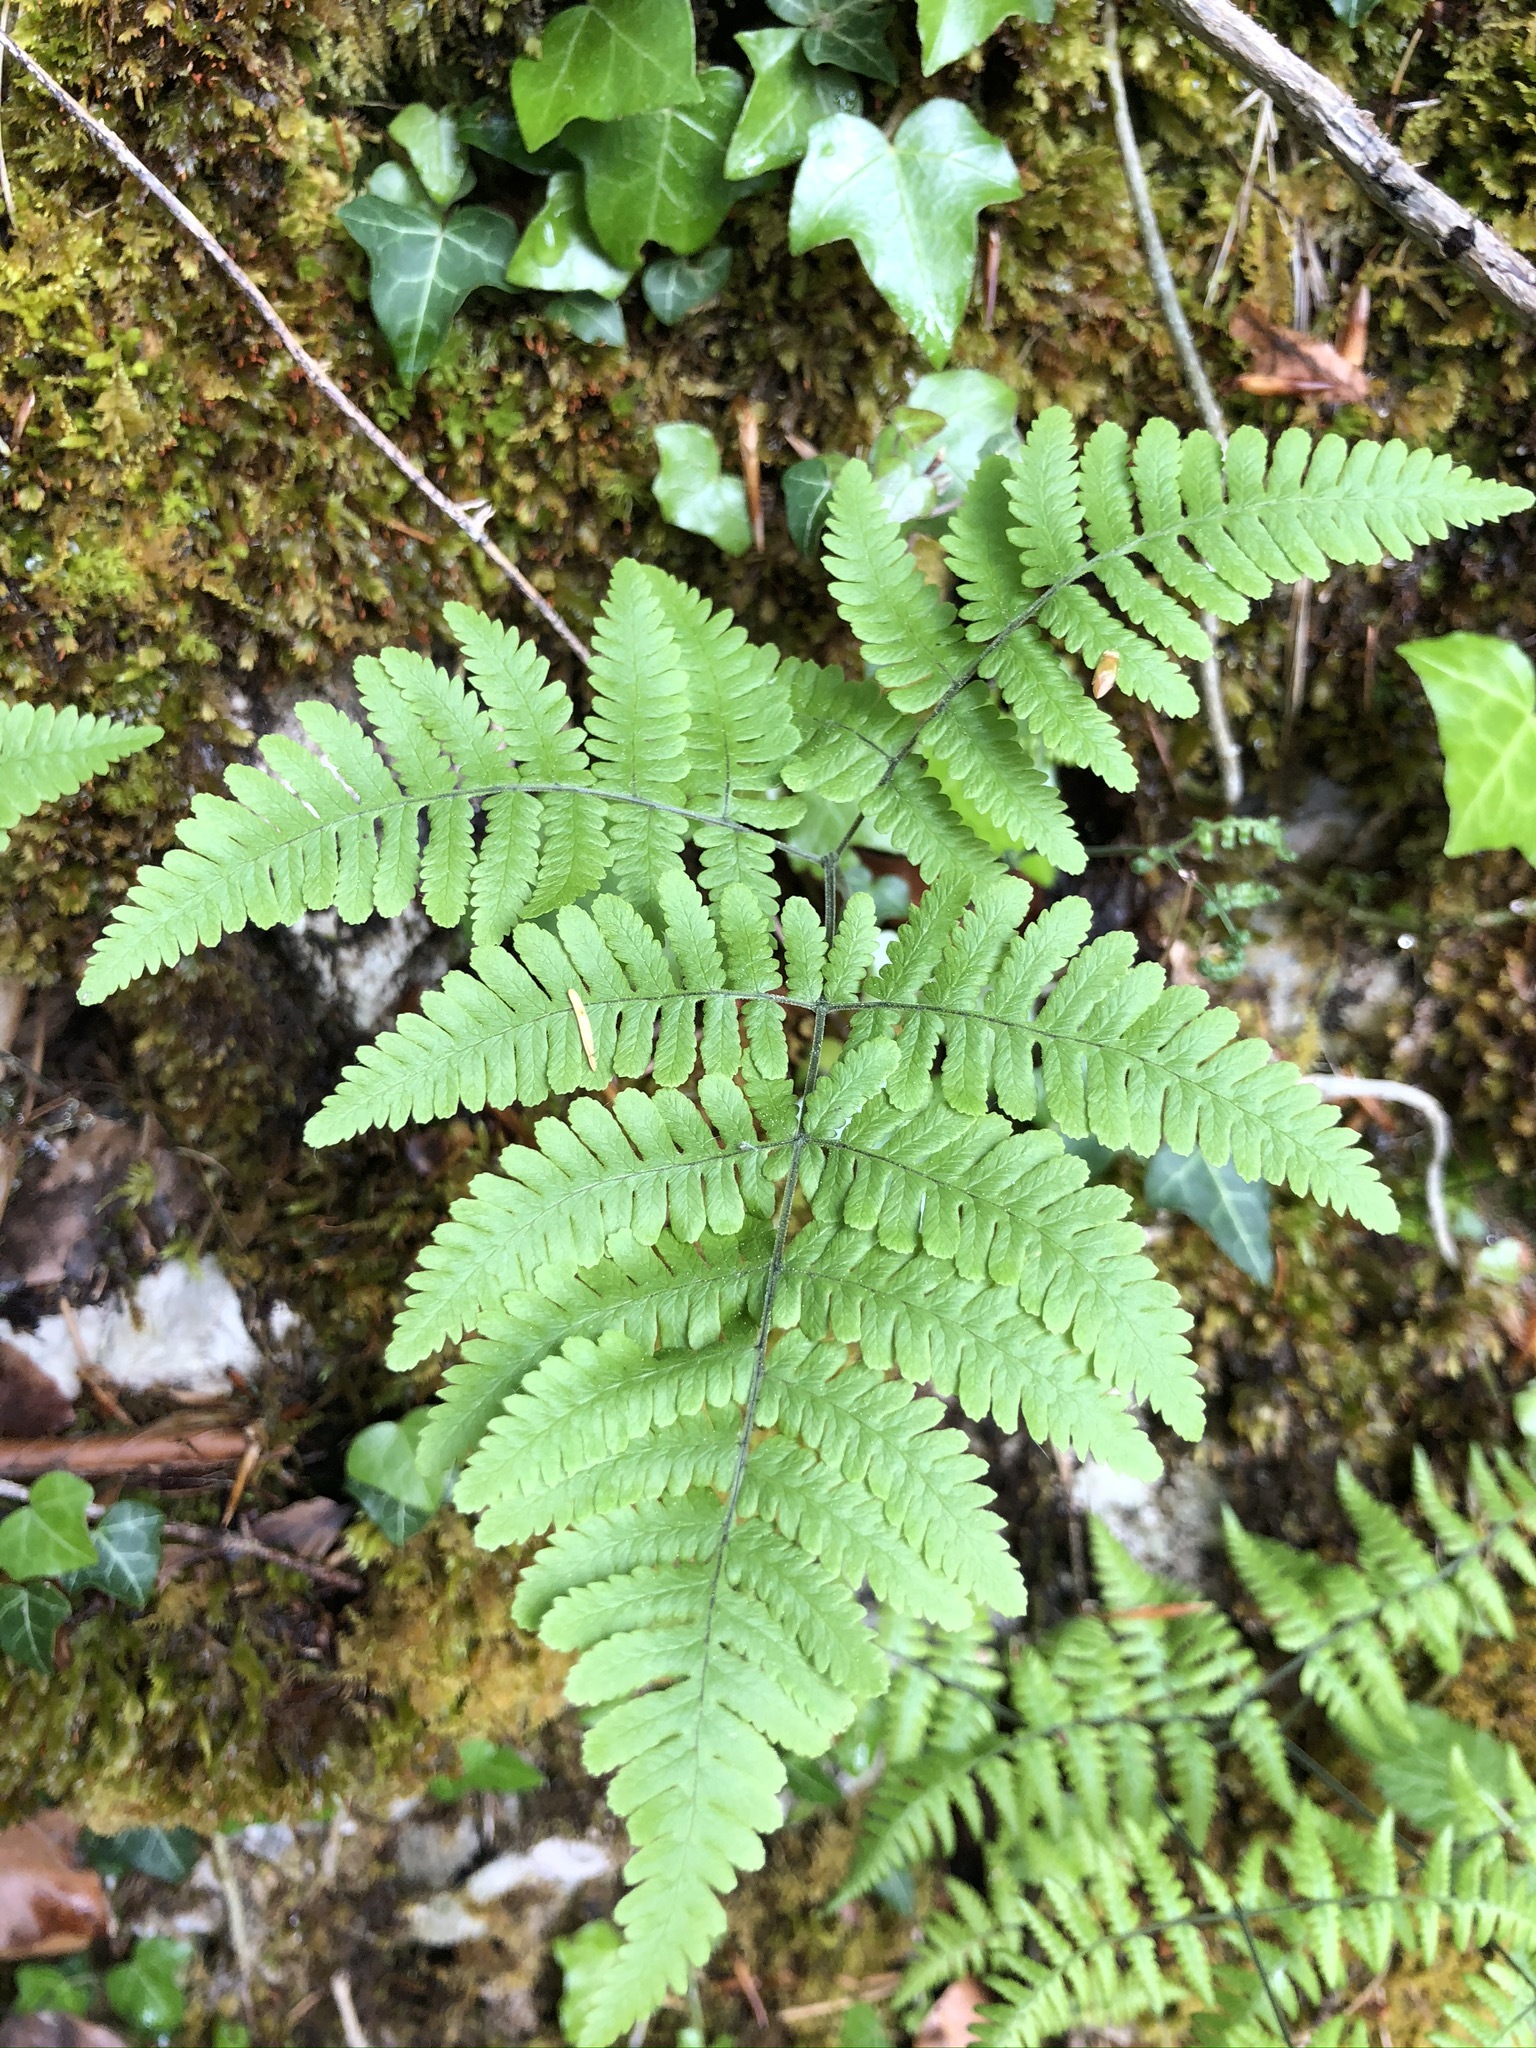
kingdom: Plantae
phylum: Tracheophyta
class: Polypodiopsida
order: Polypodiales
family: Cystopteridaceae
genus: Gymnocarpium
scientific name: Gymnocarpium robertianum
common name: Limestone fern
